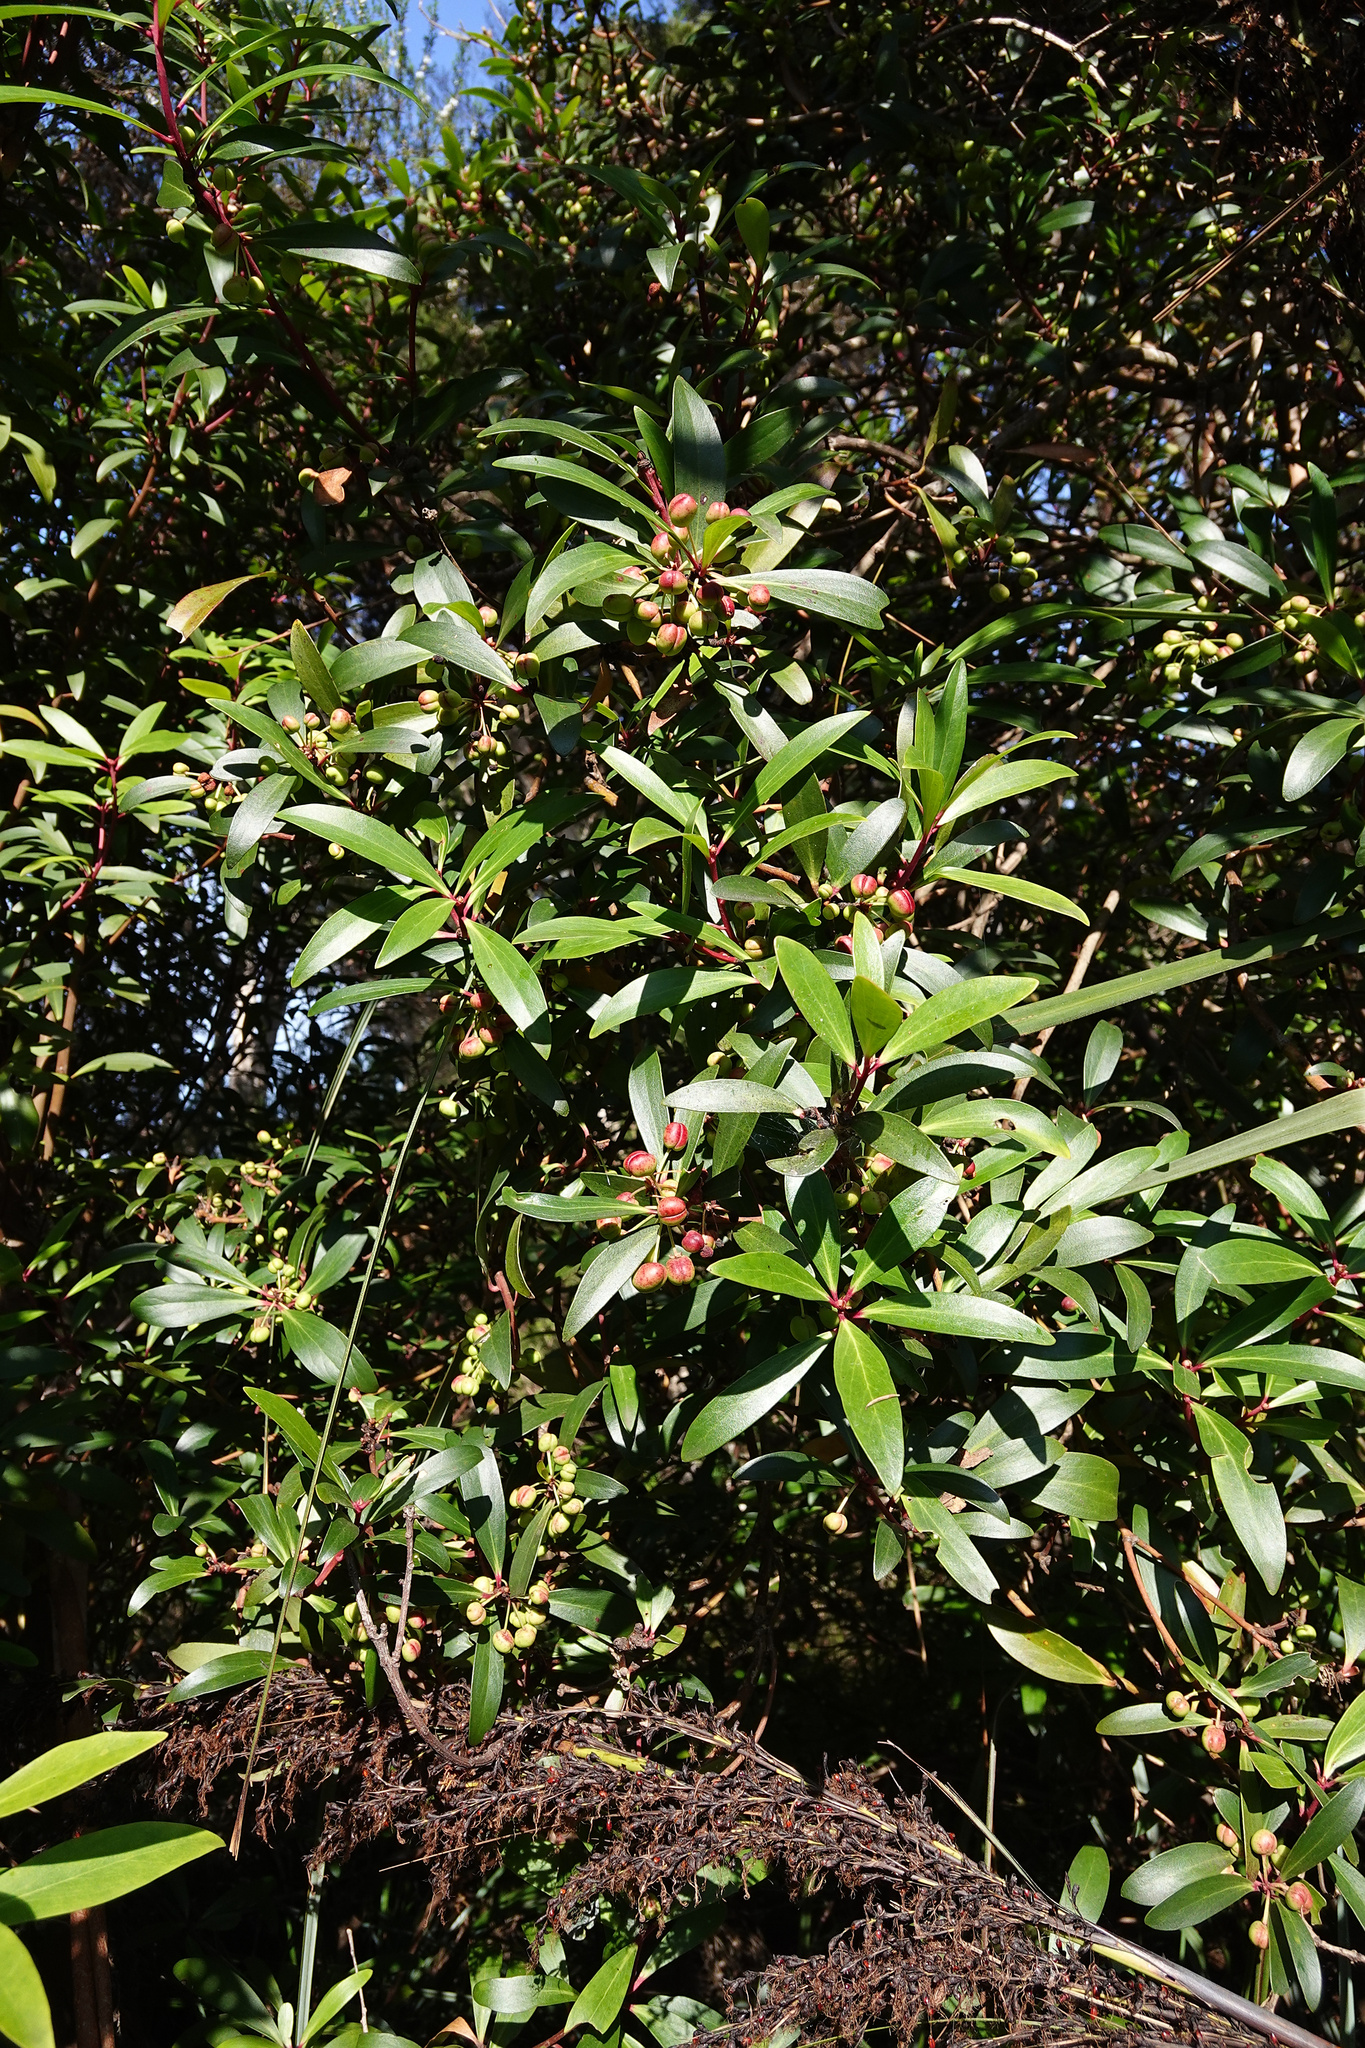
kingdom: Plantae
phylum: Tracheophyta
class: Magnoliopsida
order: Canellales
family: Winteraceae
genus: Drimys
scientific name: Drimys aromatica
